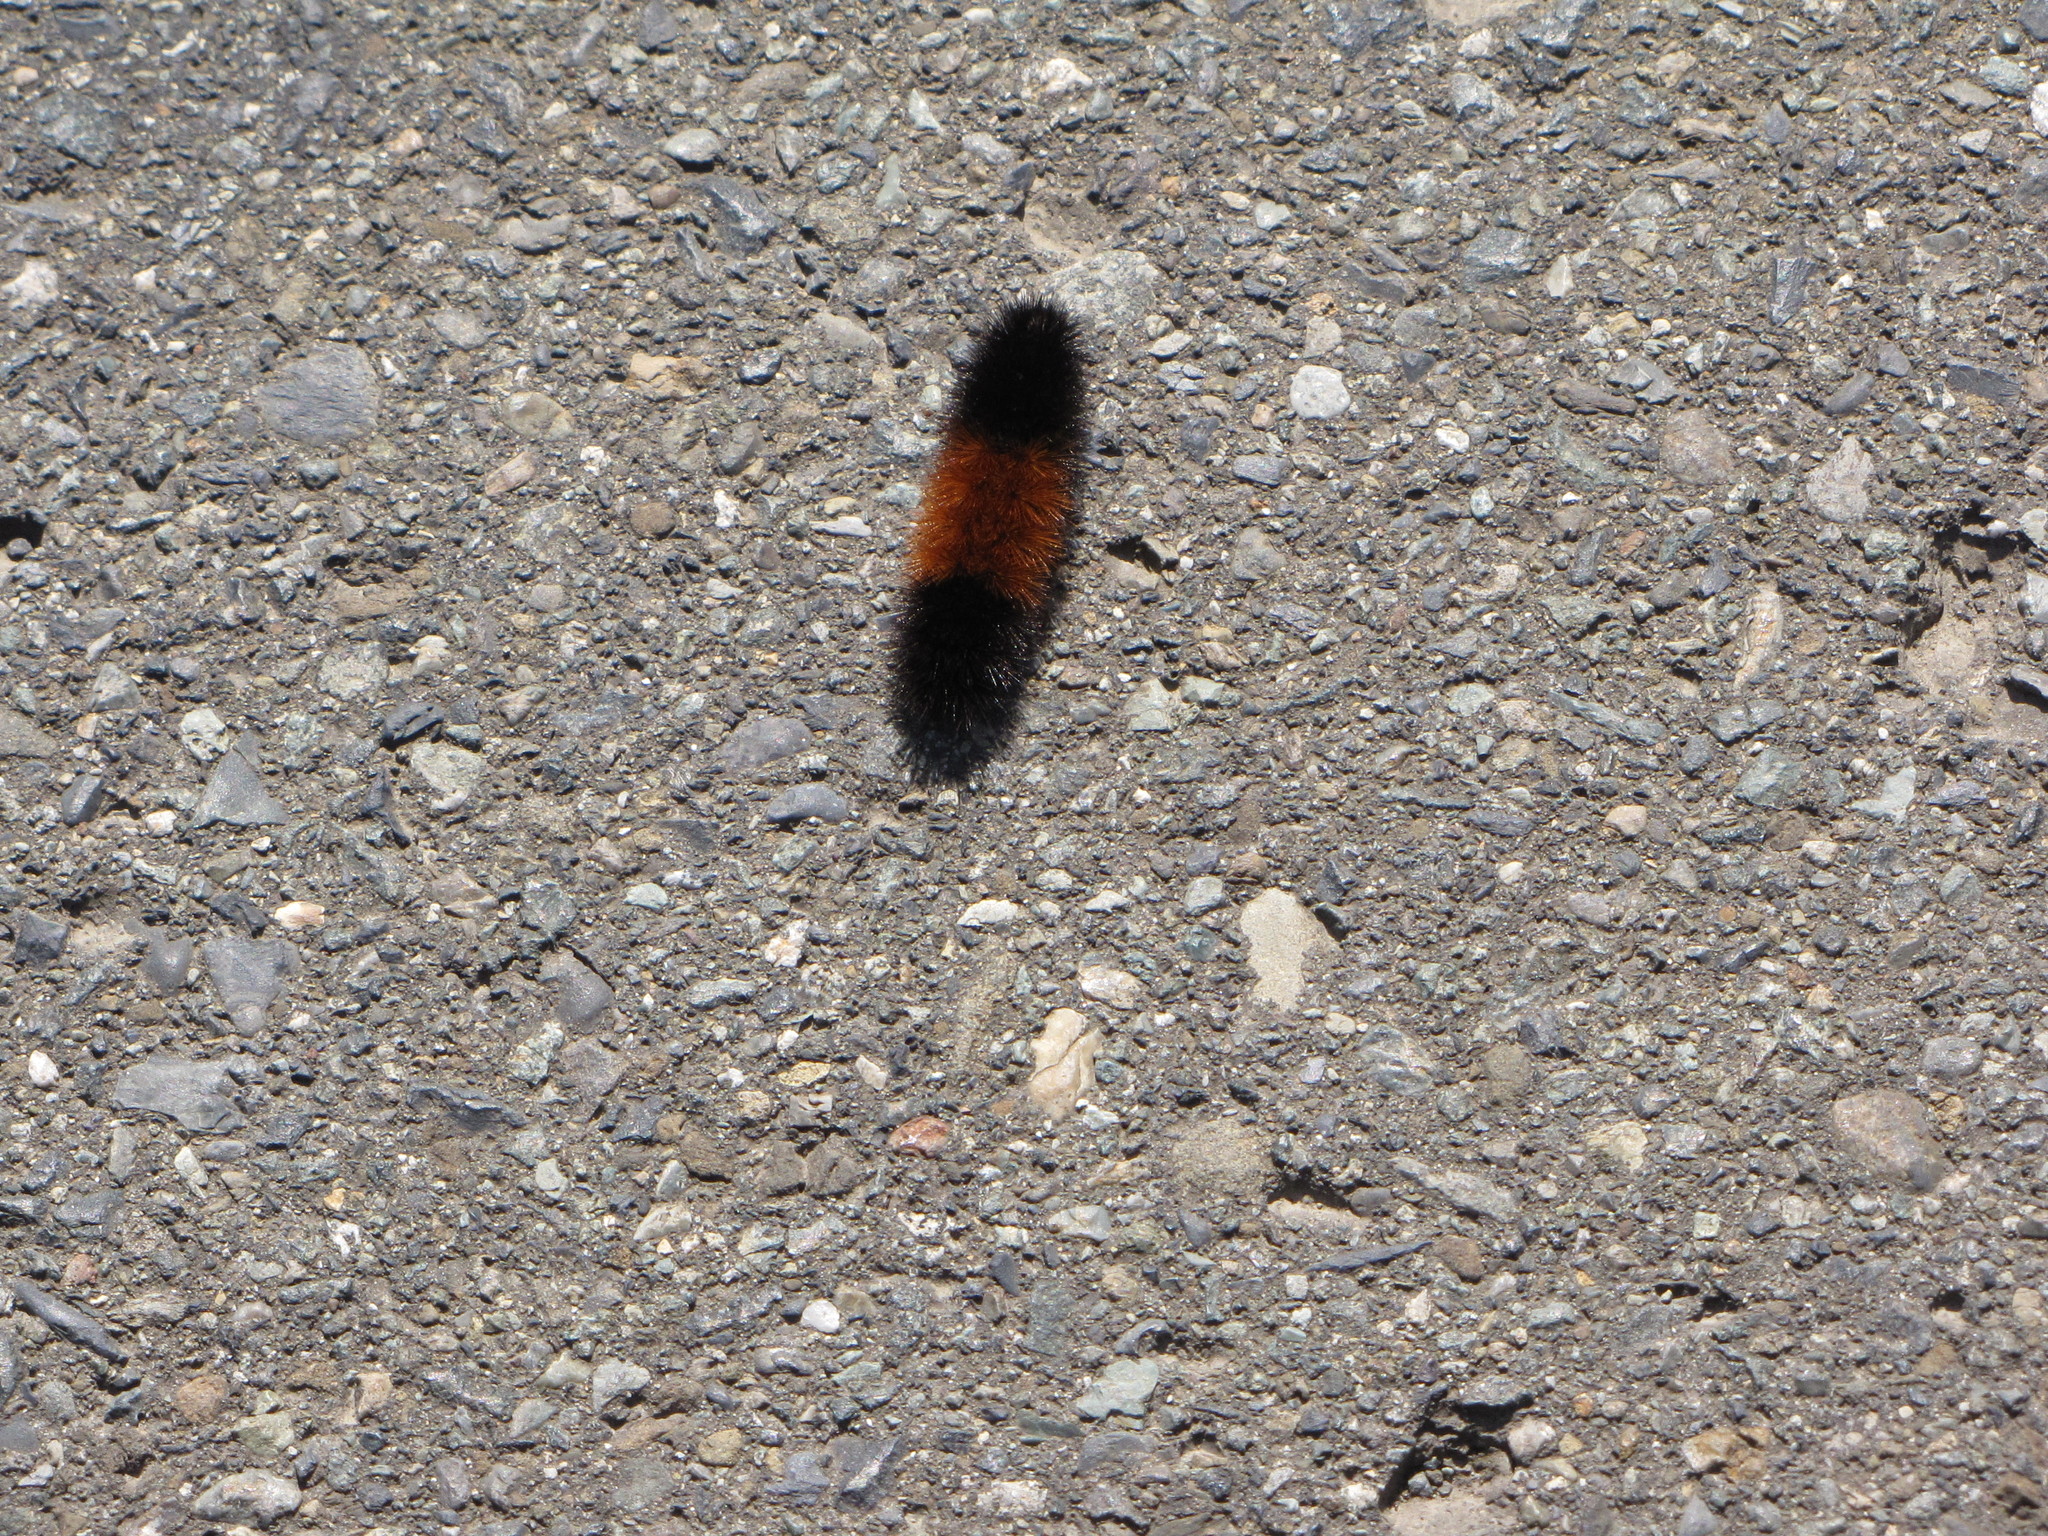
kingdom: Animalia
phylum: Arthropoda
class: Insecta
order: Lepidoptera
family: Erebidae
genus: Pyrrharctia
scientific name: Pyrrharctia isabella
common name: Isabella tiger moth
